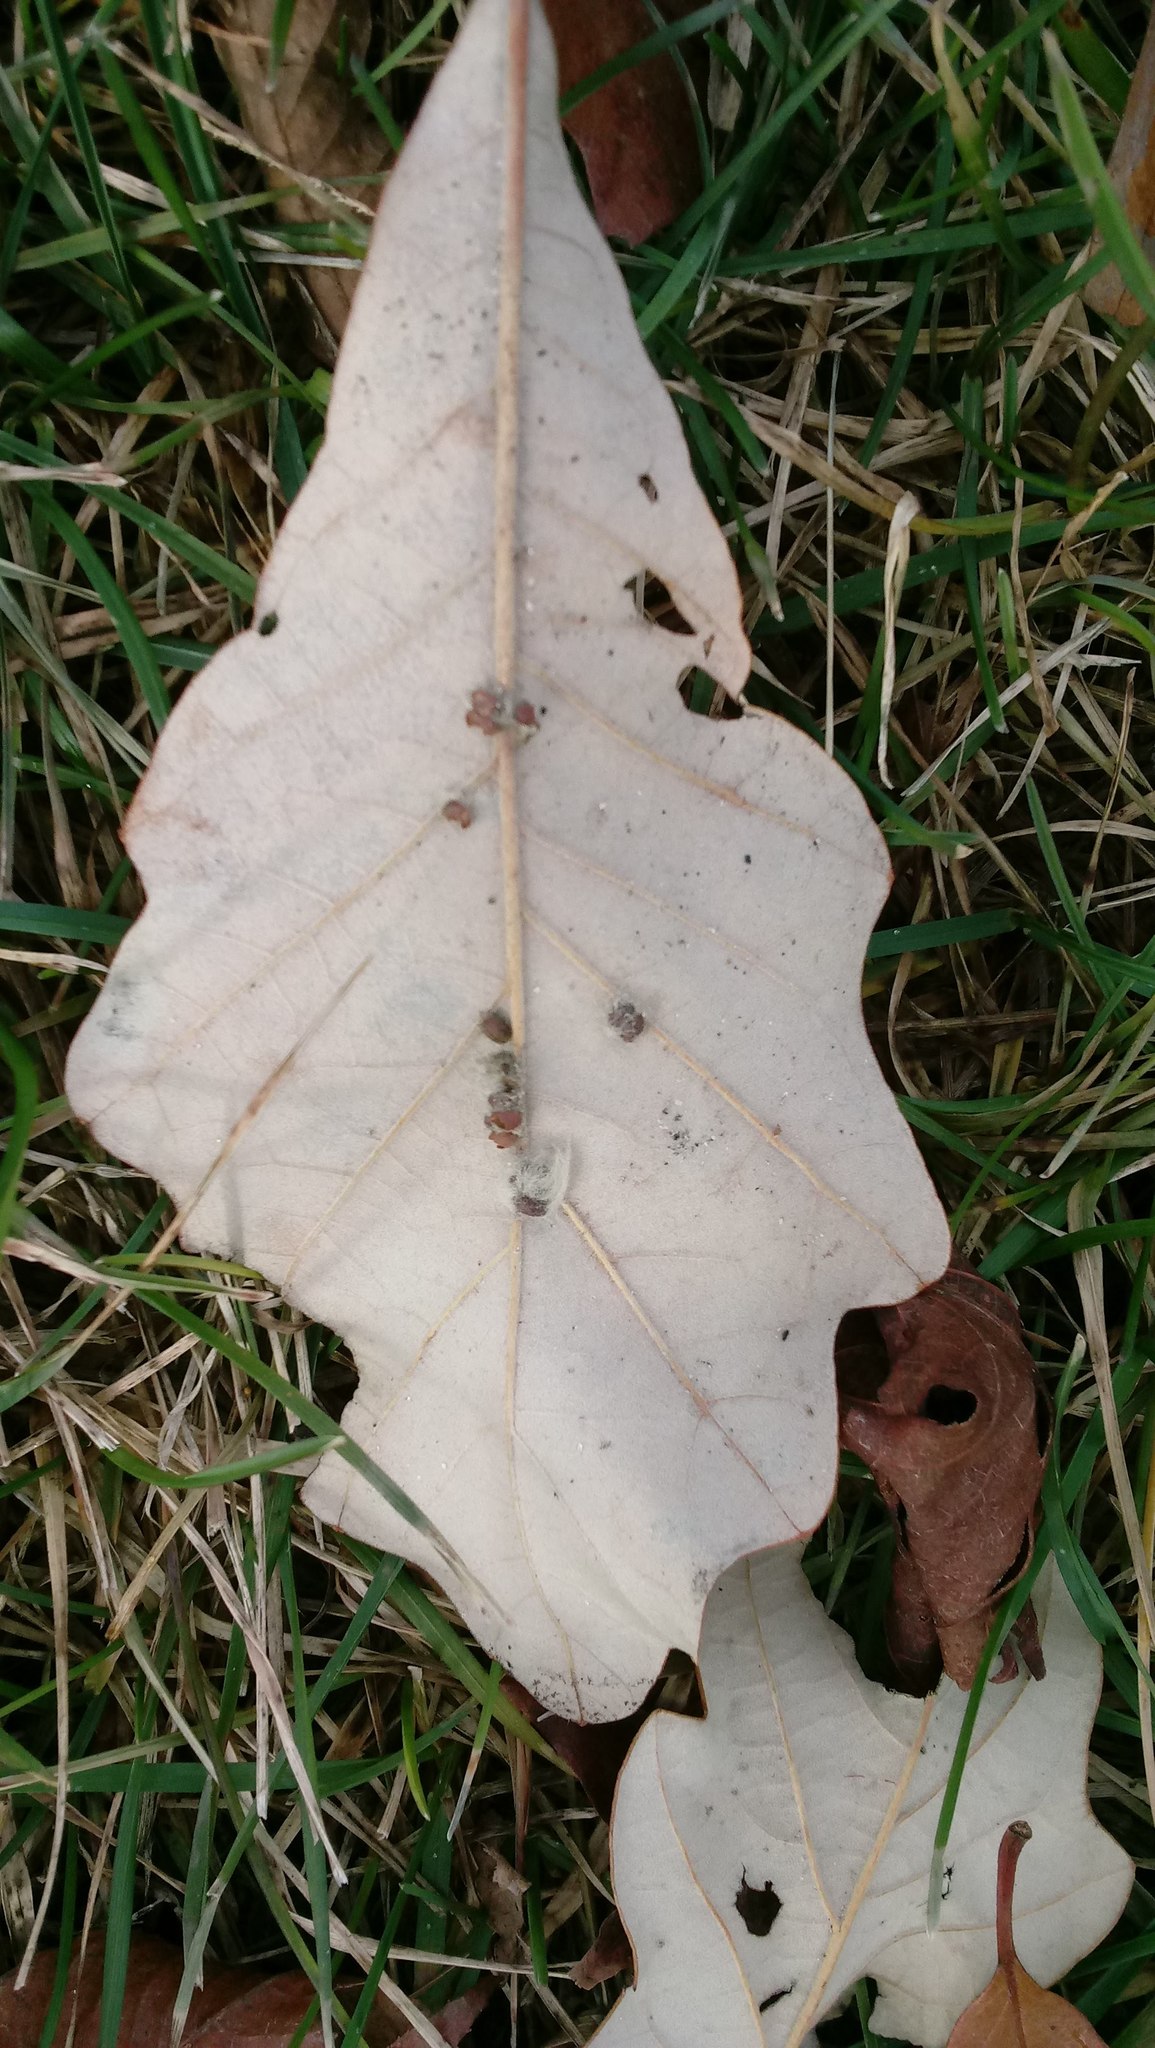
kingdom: Animalia
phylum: Arthropoda
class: Insecta
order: Hymenoptera
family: Cynipidae
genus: Andricus
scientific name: Andricus Druon ignotum
